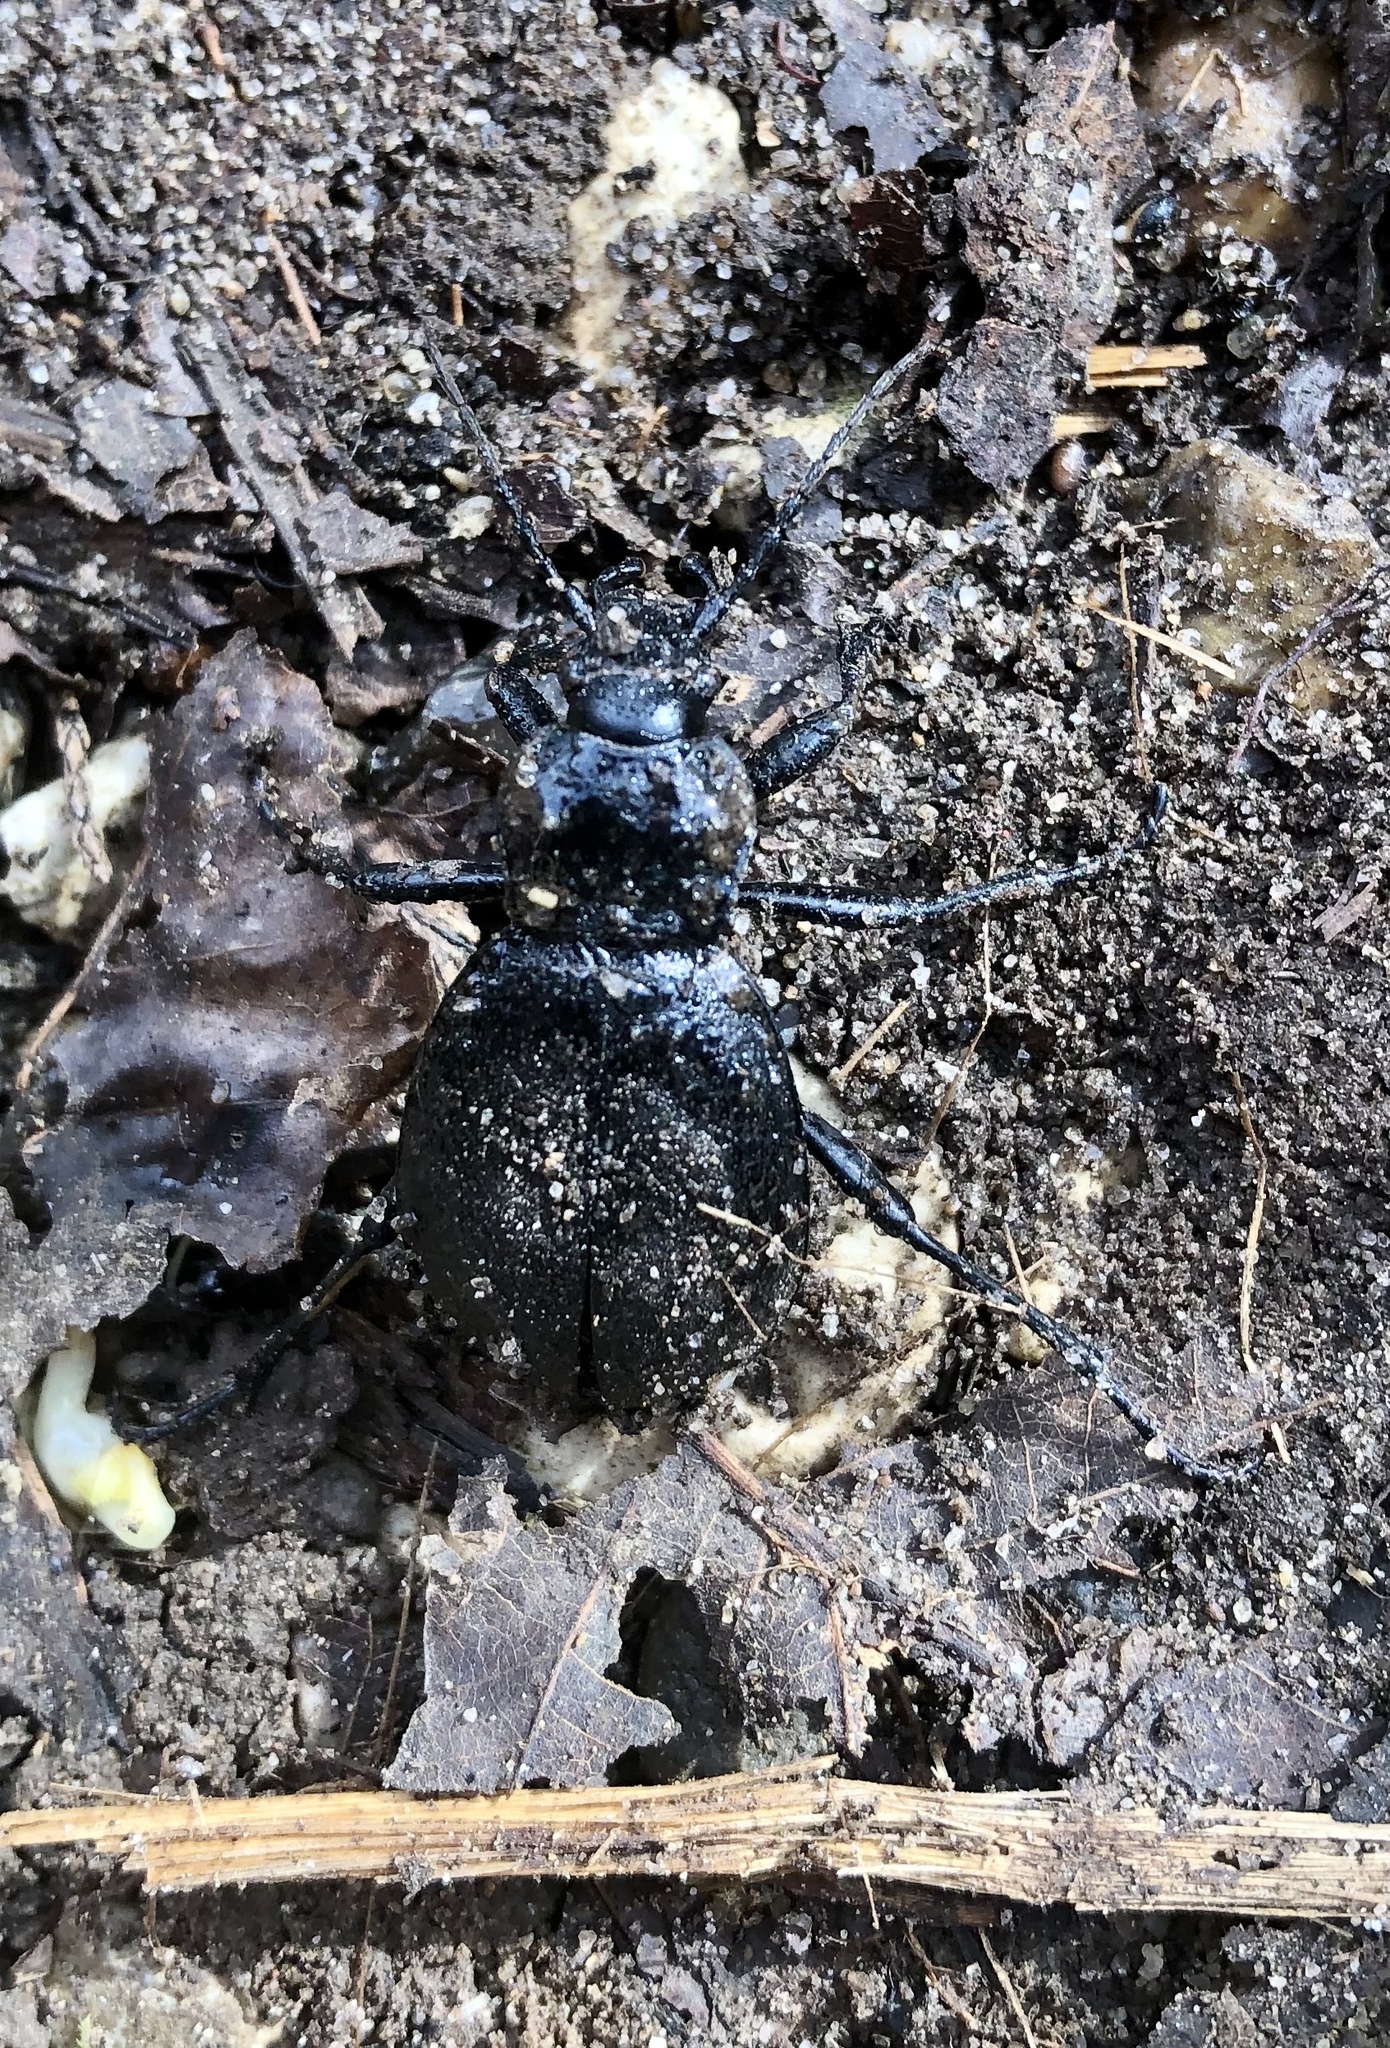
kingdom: Animalia
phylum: Arthropoda
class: Insecta
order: Coleoptera
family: Carabidae
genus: Carabus
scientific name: Carabus coriaceus
